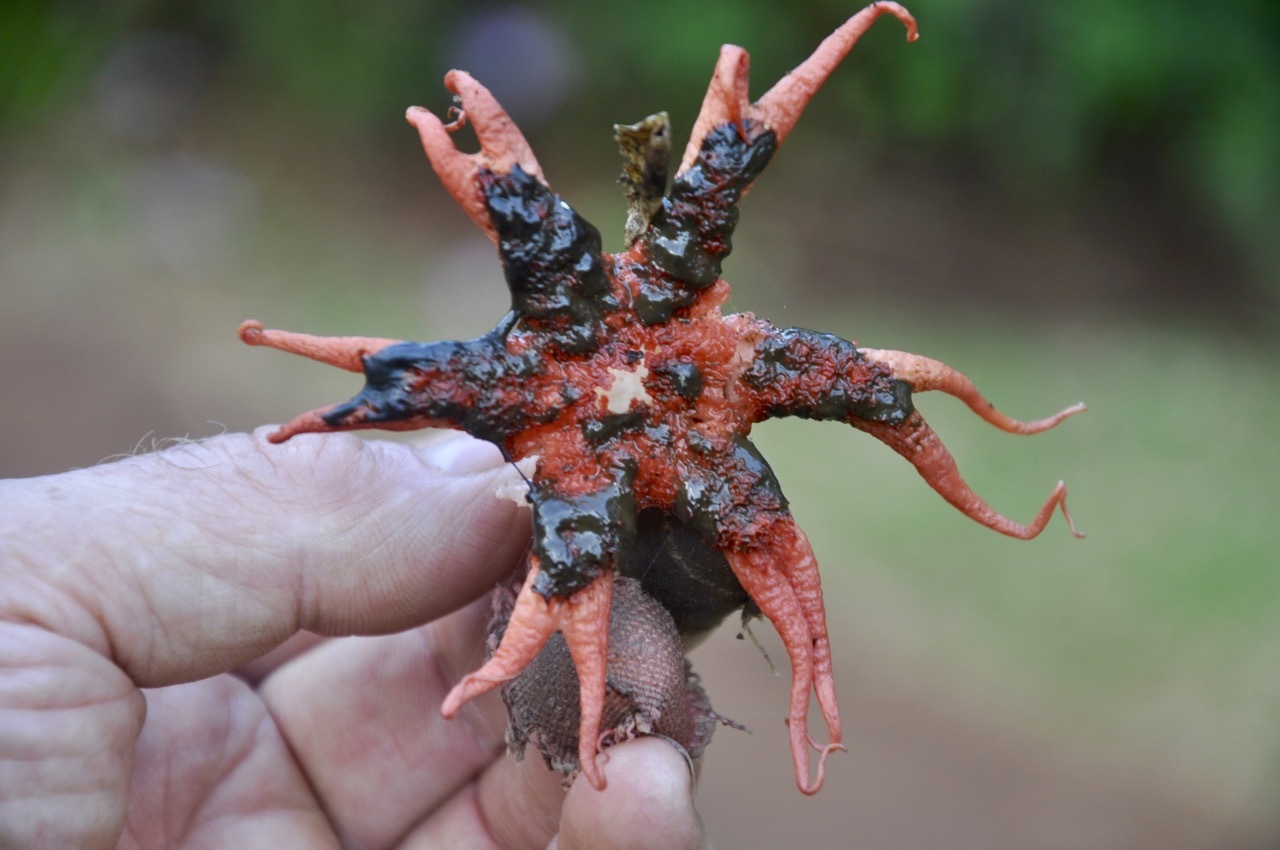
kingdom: Fungi
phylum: Basidiomycota
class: Agaricomycetes
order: Phallales
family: Phallaceae
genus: Aseroe
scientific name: Aseroe rubra
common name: Starfish fungus
